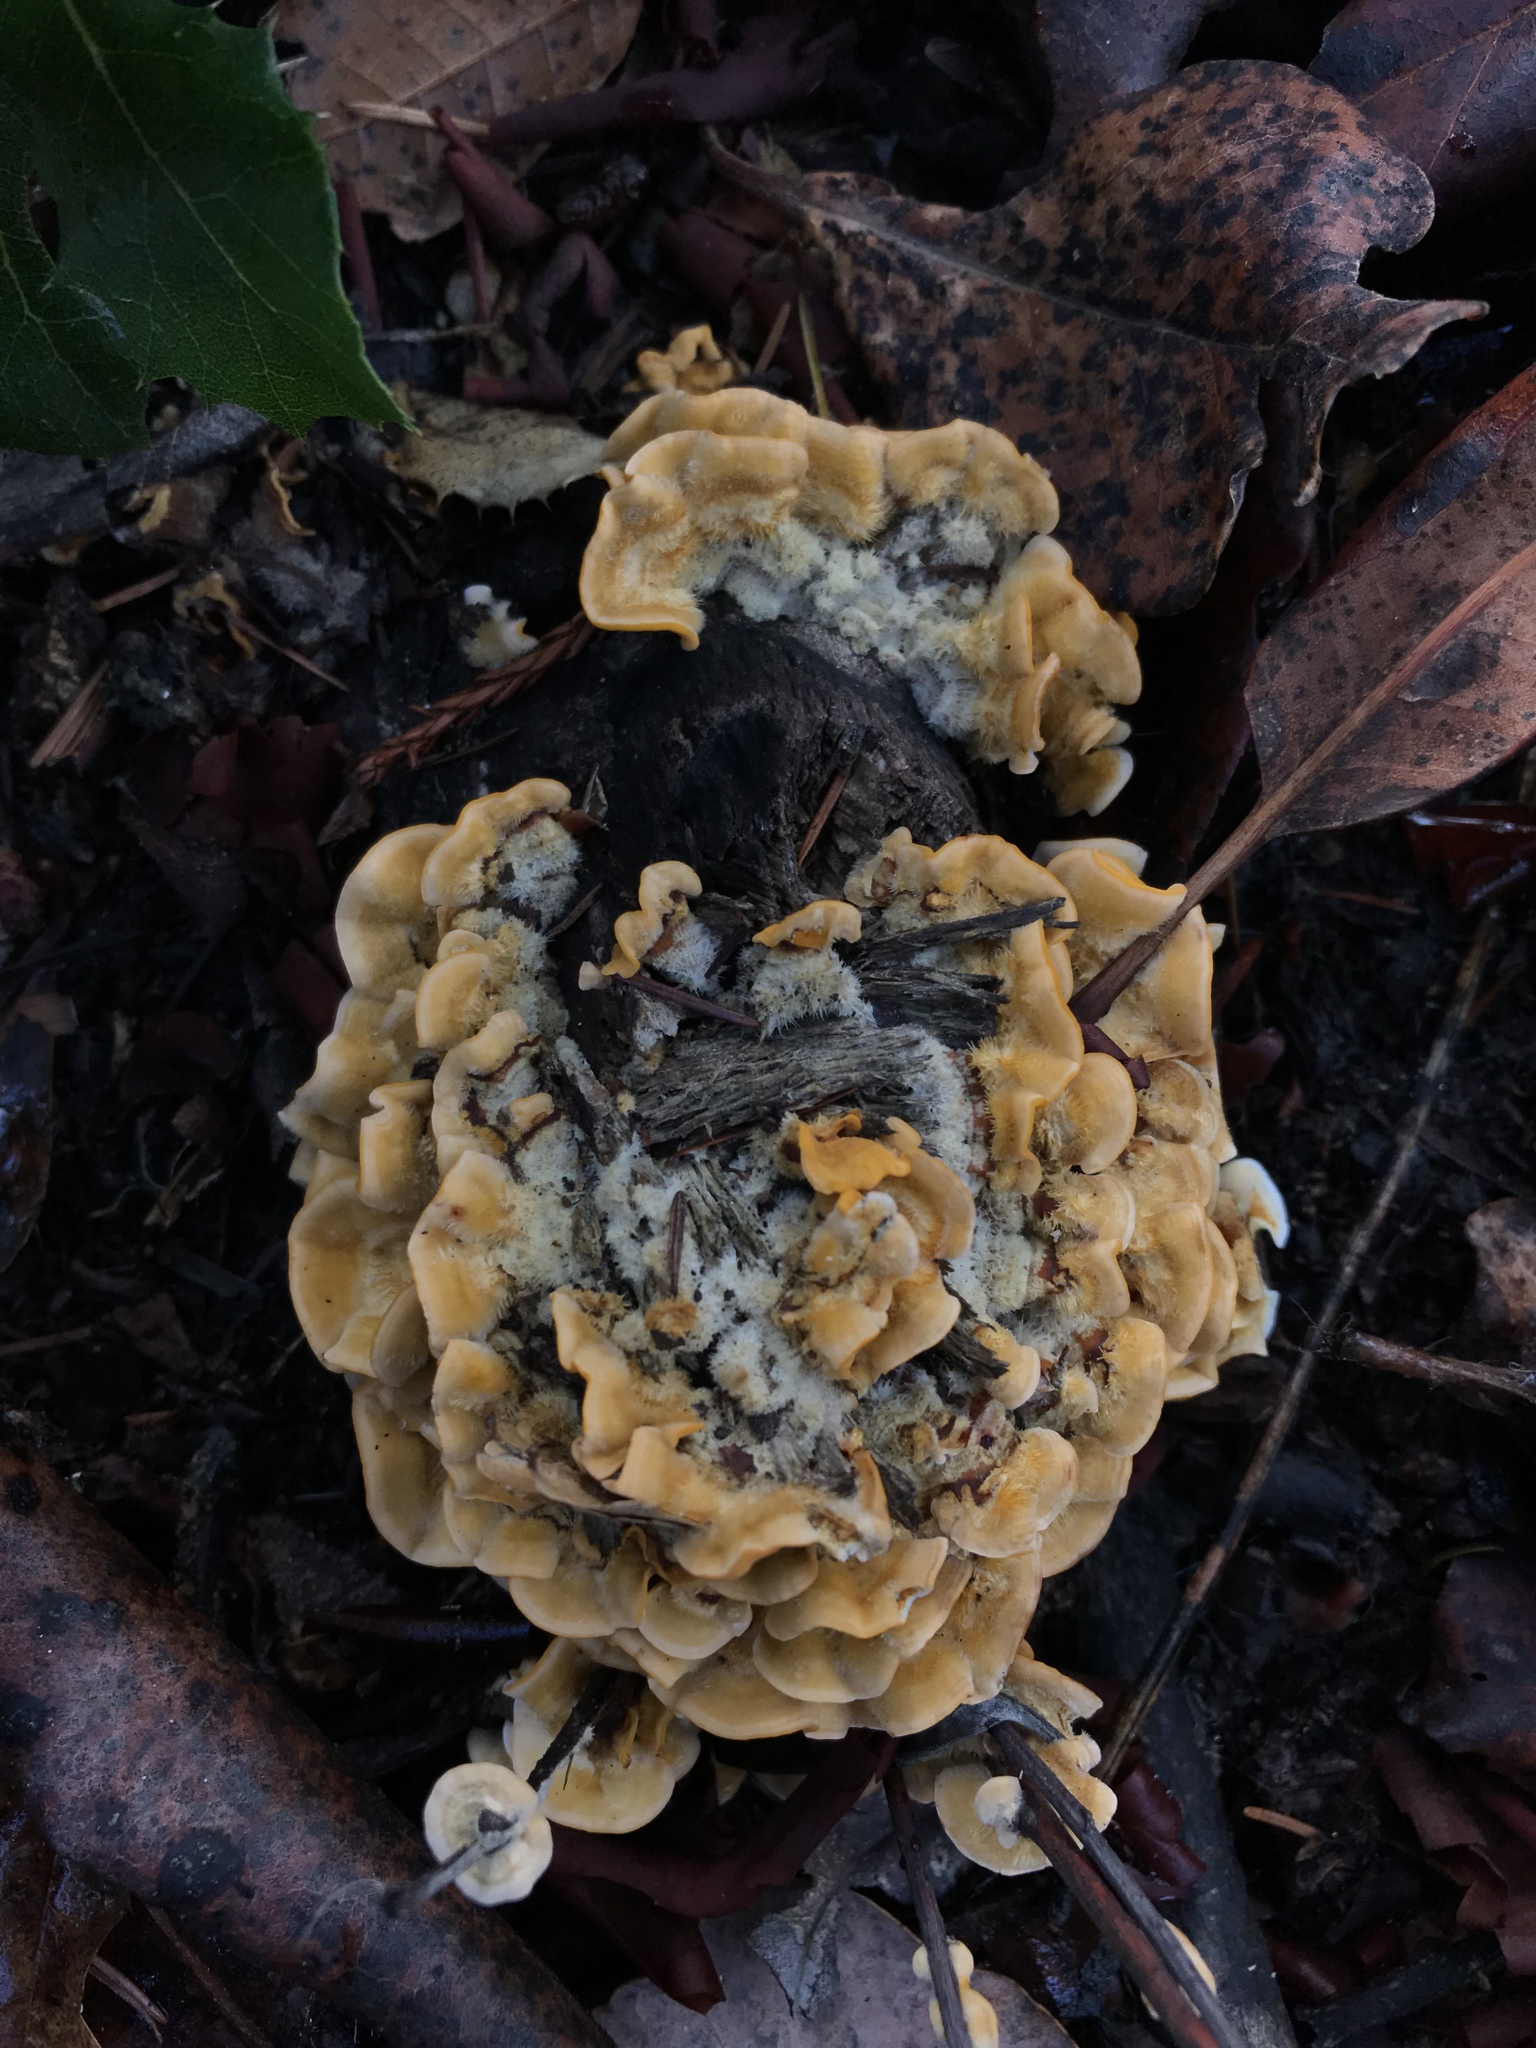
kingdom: Fungi
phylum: Basidiomycota
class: Agaricomycetes
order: Russulales
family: Stereaceae
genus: Stereum
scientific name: Stereum hirsutum
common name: Hairy curtain crust
